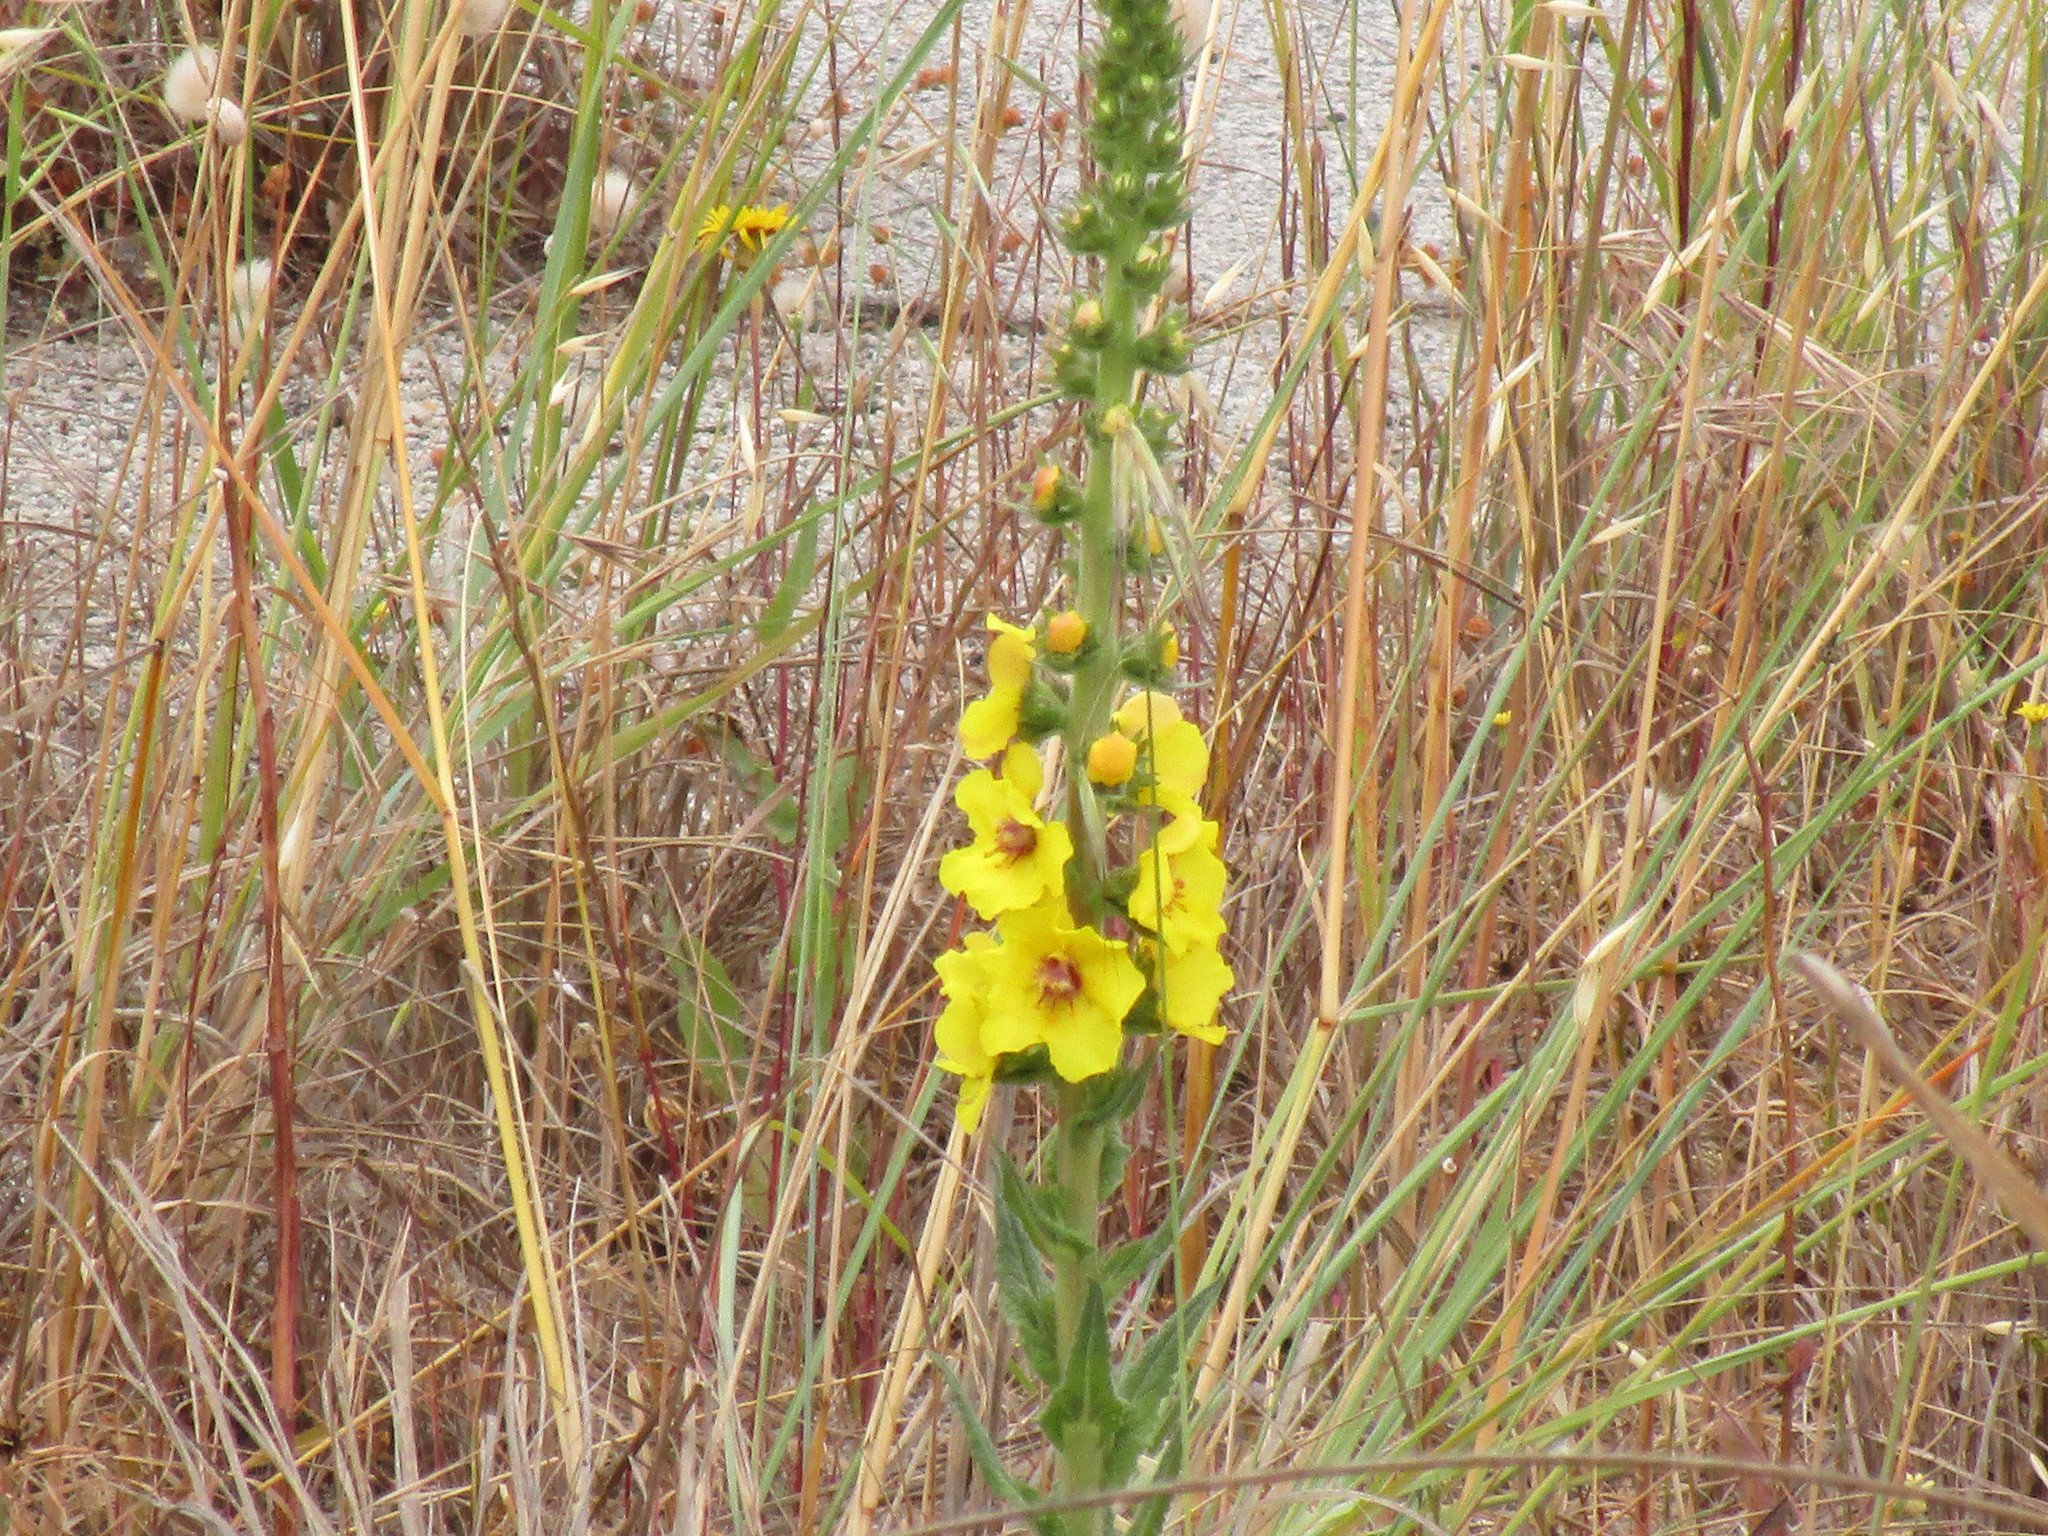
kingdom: Plantae
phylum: Tracheophyta
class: Magnoliopsida
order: Lamiales
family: Scrophulariaceae
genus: Verbascum
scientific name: Verbascum virgatum
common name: Twiggy mullein
